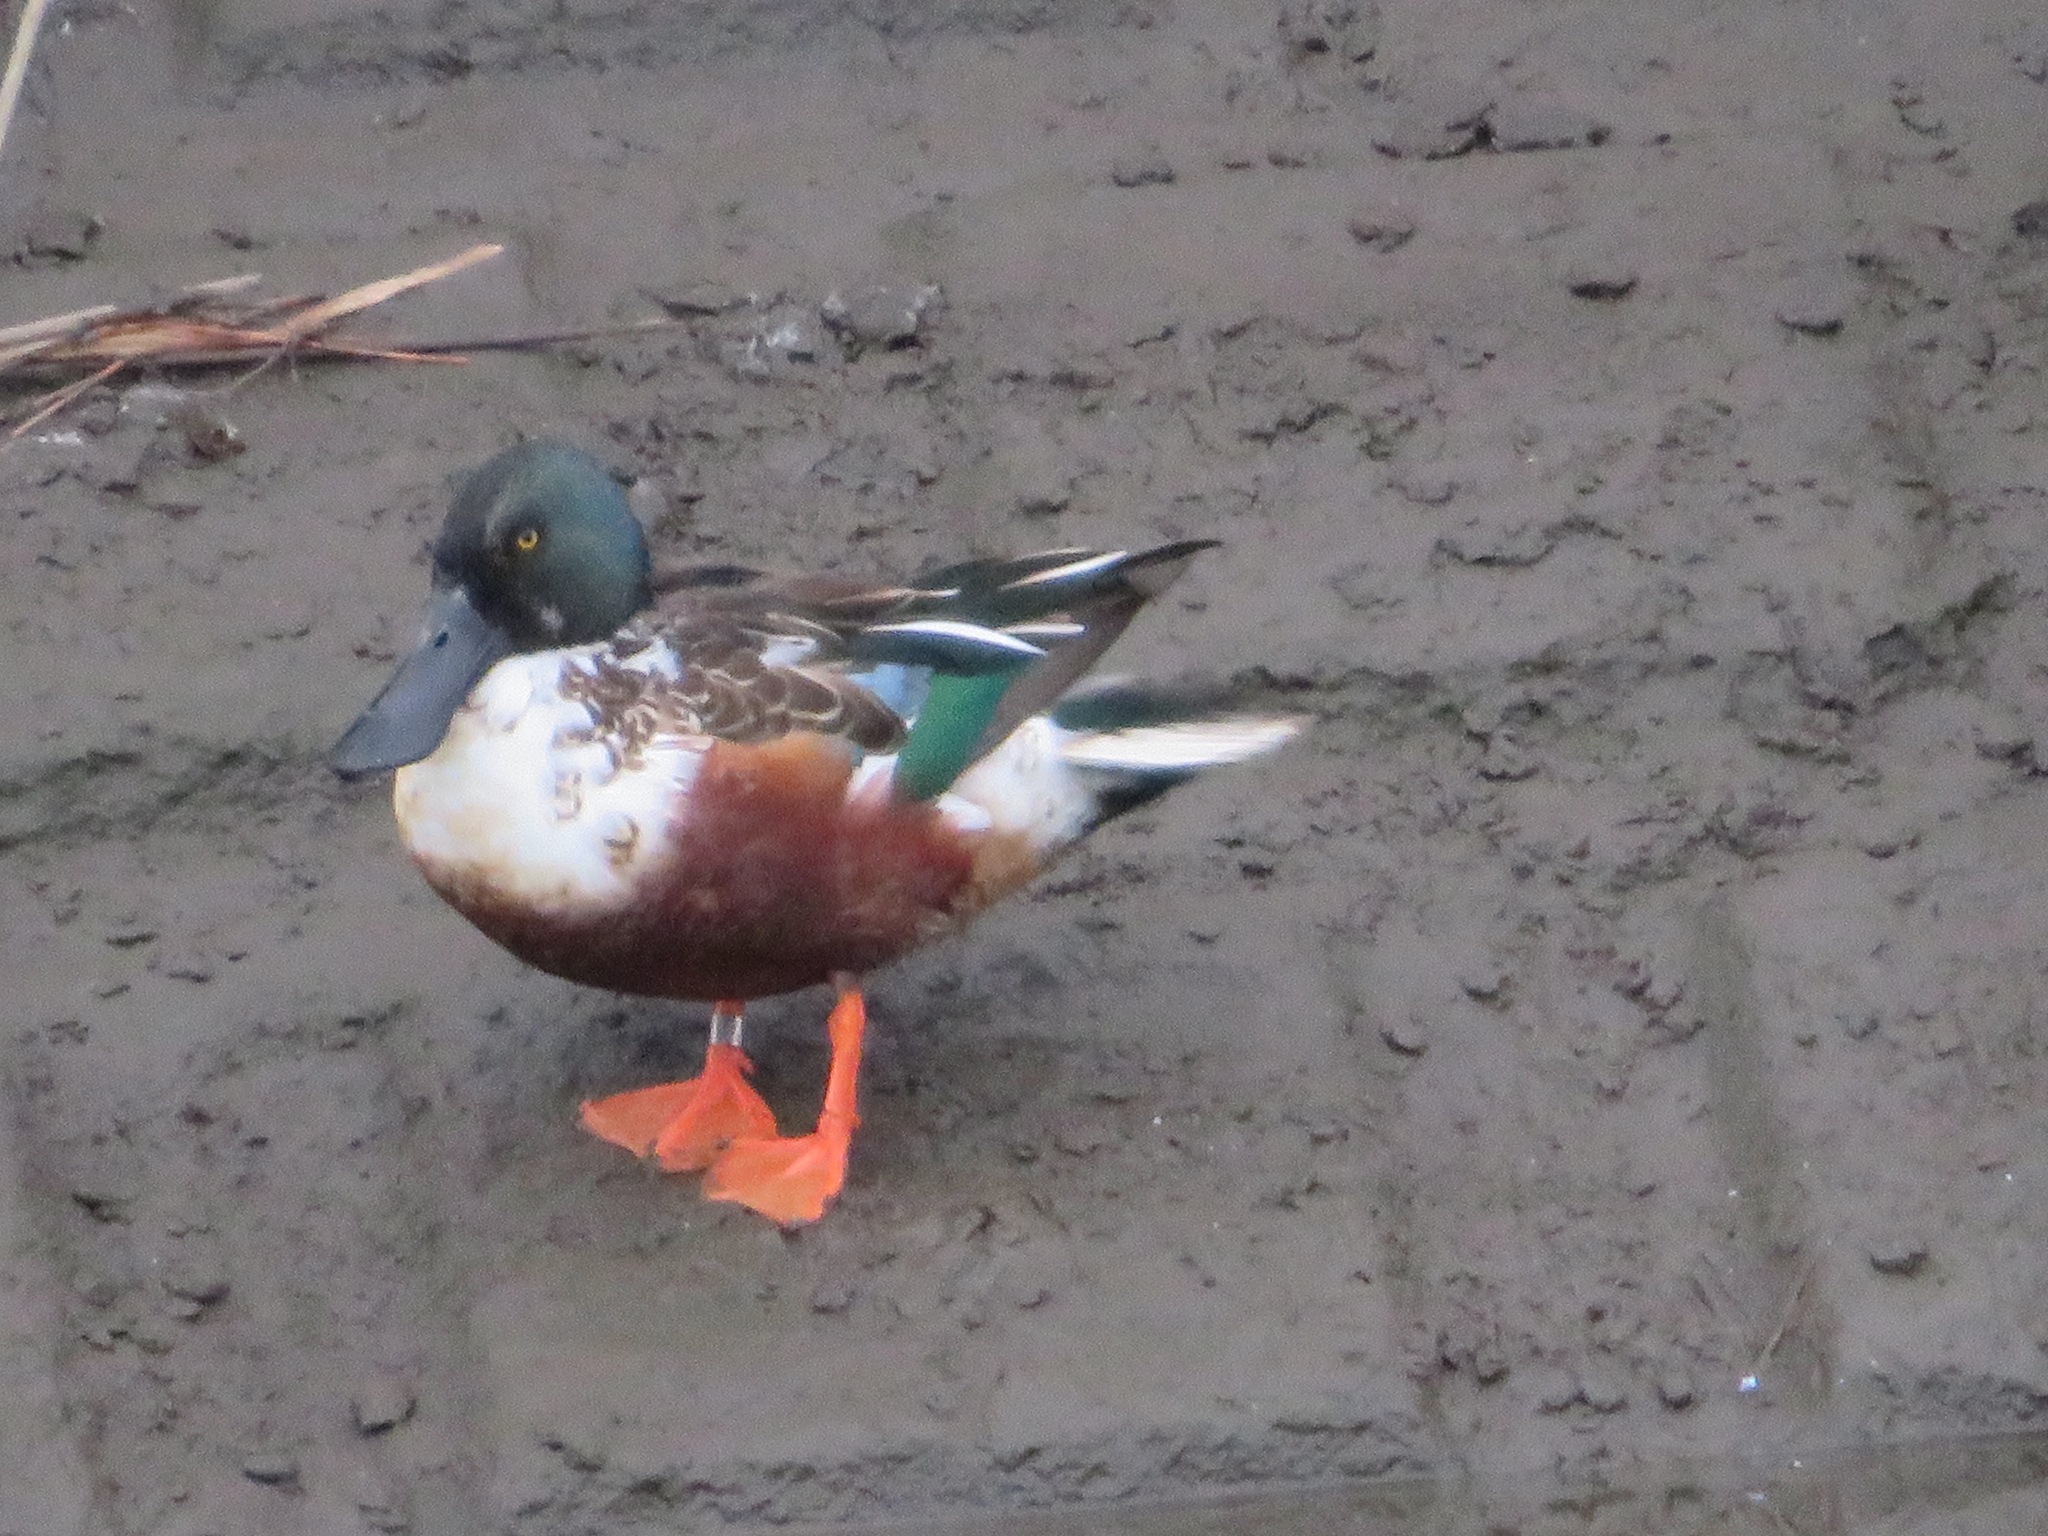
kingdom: Animalia
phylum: Chordata
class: Aves
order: Anseriformes
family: Anatidae
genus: Spatula
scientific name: Spatula clypeata
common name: Northern shoveler
